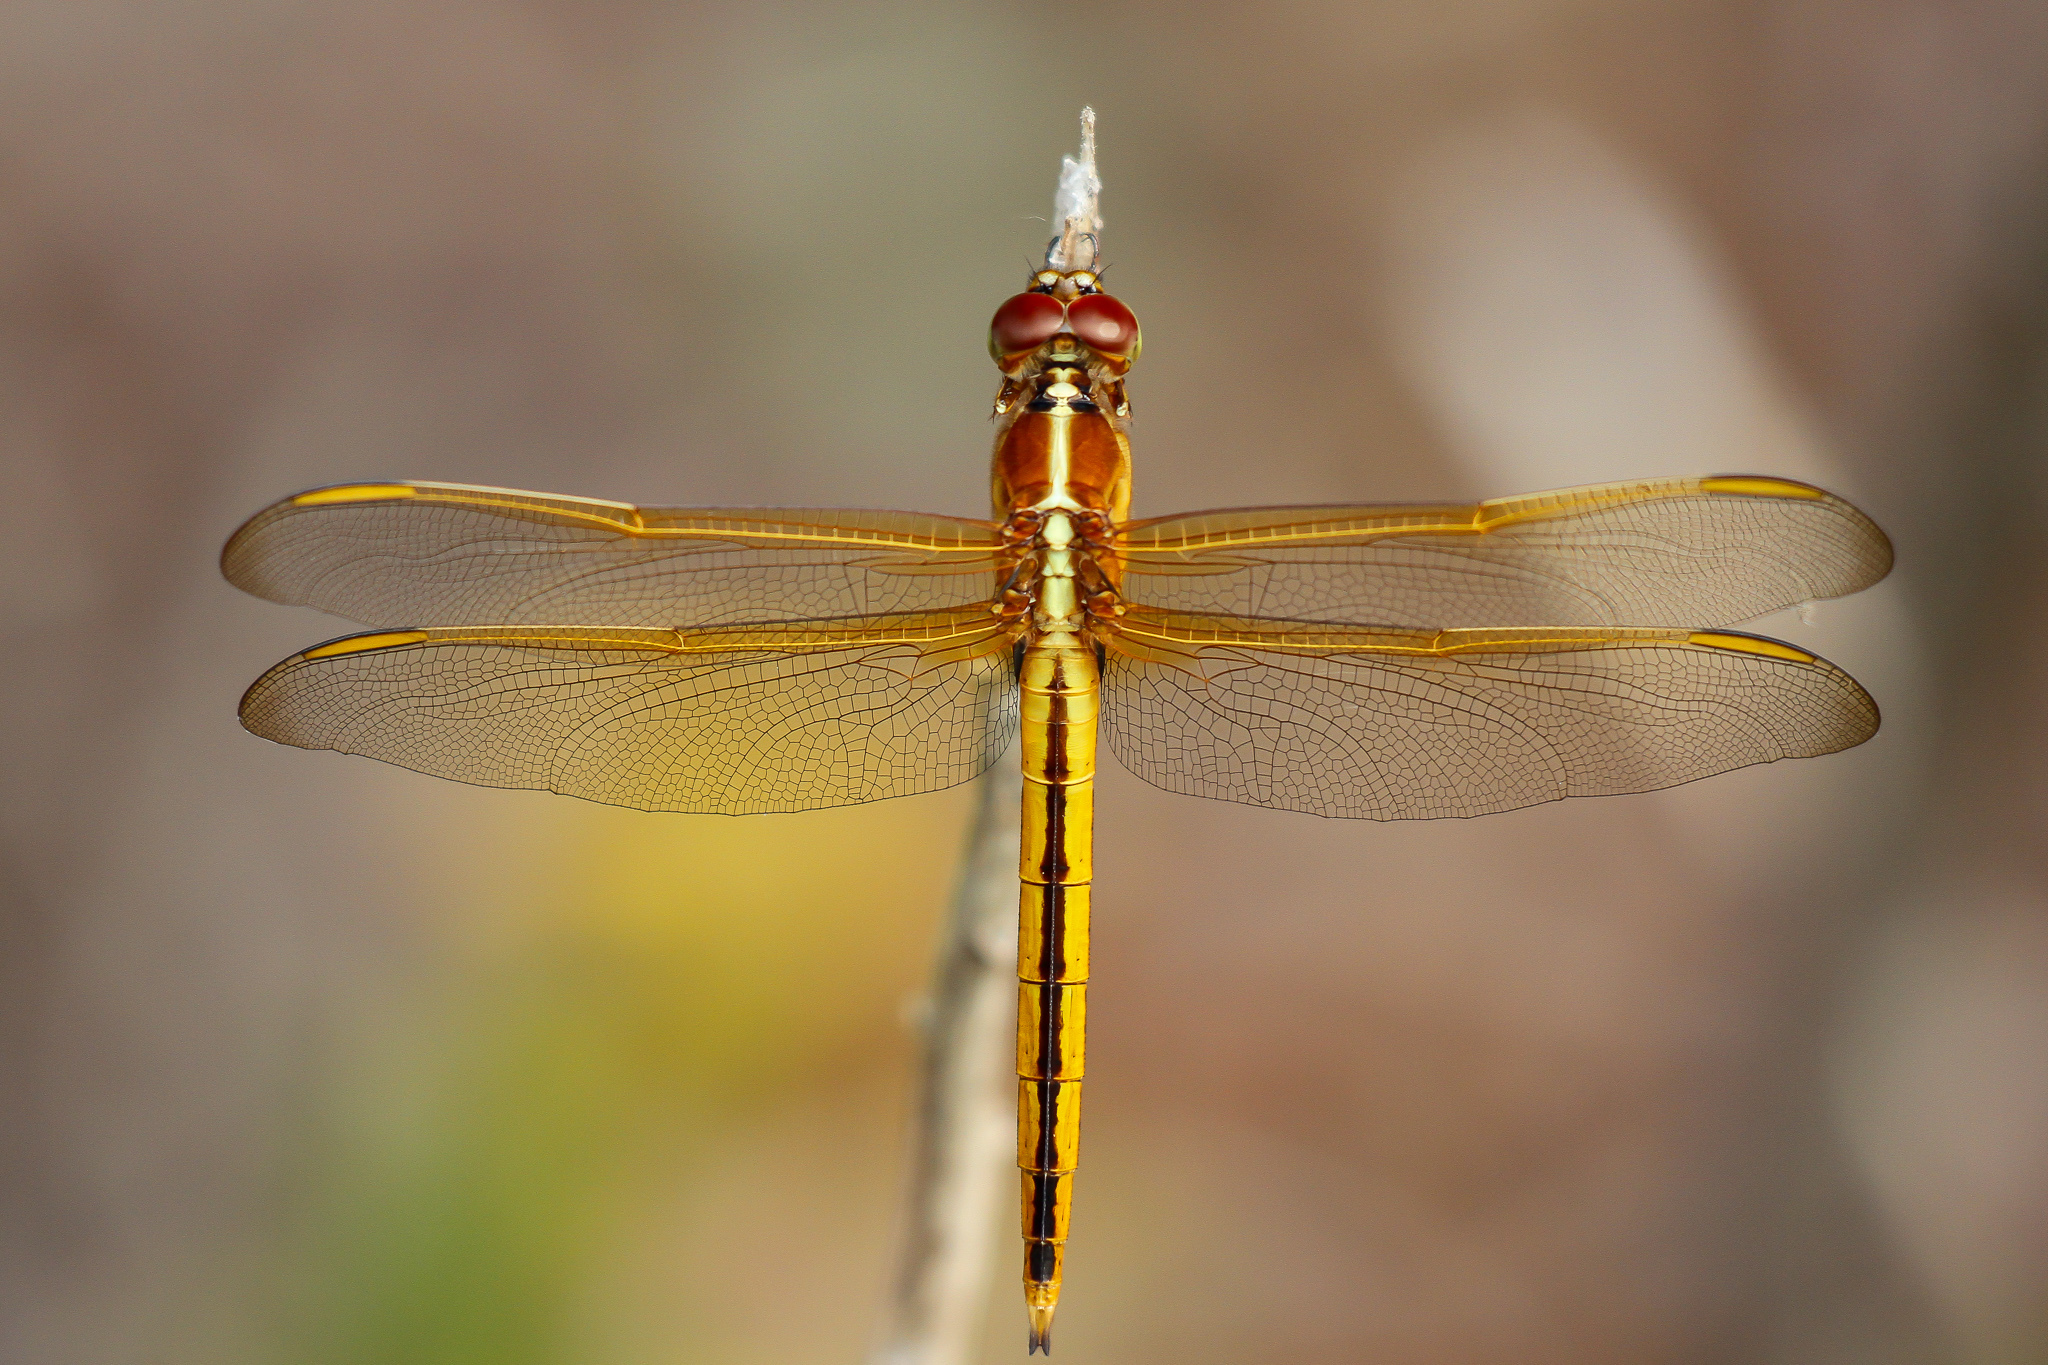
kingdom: Animalia
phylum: Arthropoda
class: Insecta
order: Odonata
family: Libellulidae
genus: Libellula
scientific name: Libellula needhami
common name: Needham's skimmer
